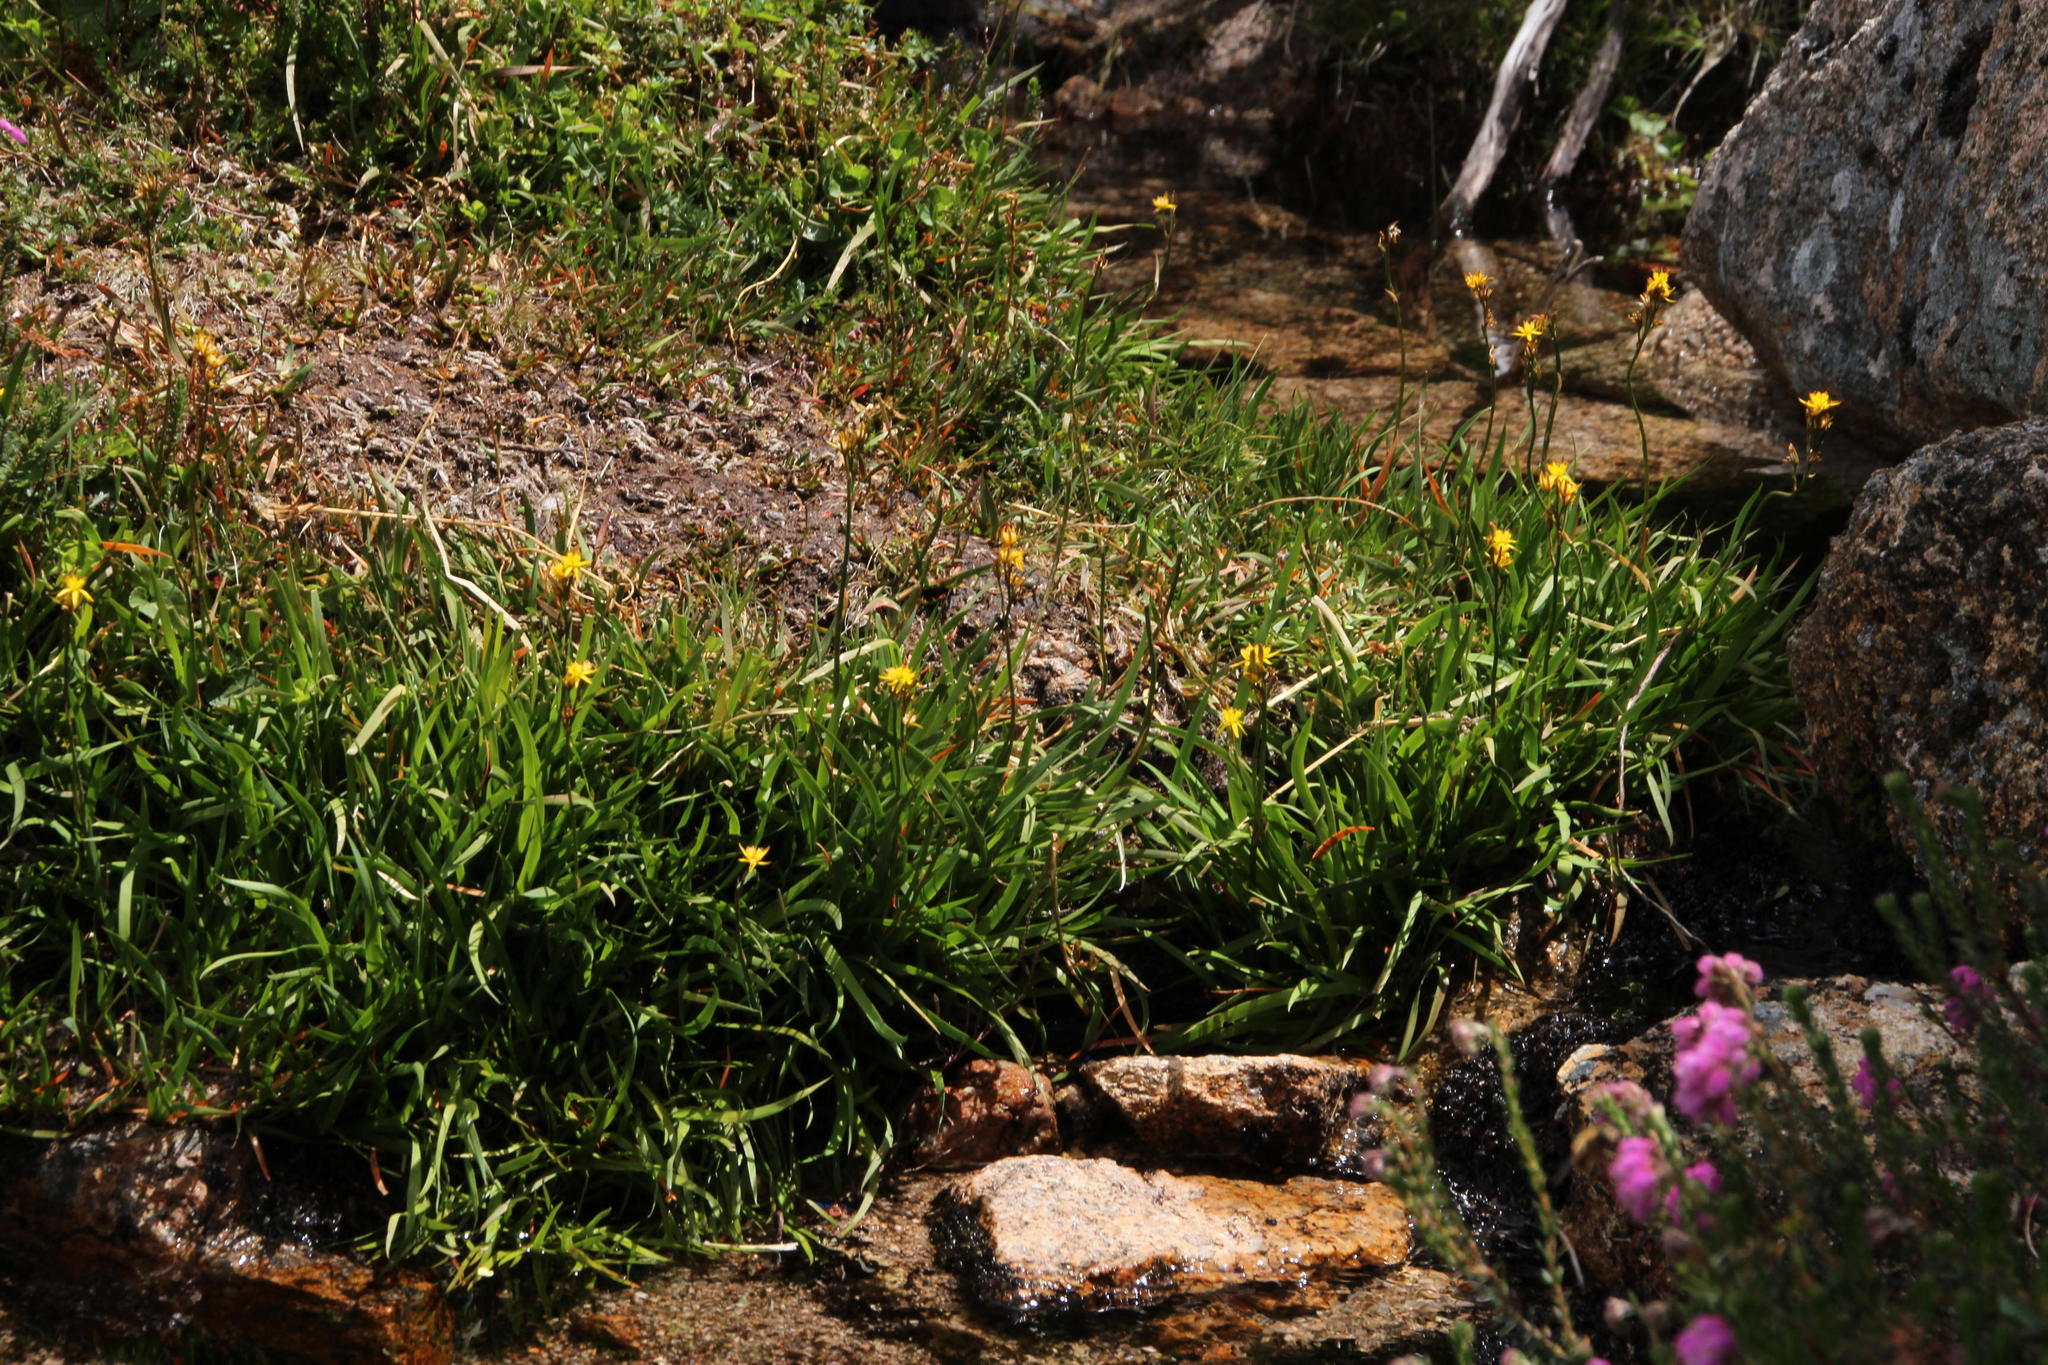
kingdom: Plantae
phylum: Tracheophyta
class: Liliopsida
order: Dioscoreales
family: Nartheciaceae
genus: Narthecium
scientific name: Narthecium ossifragum
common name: Bog asphodel
